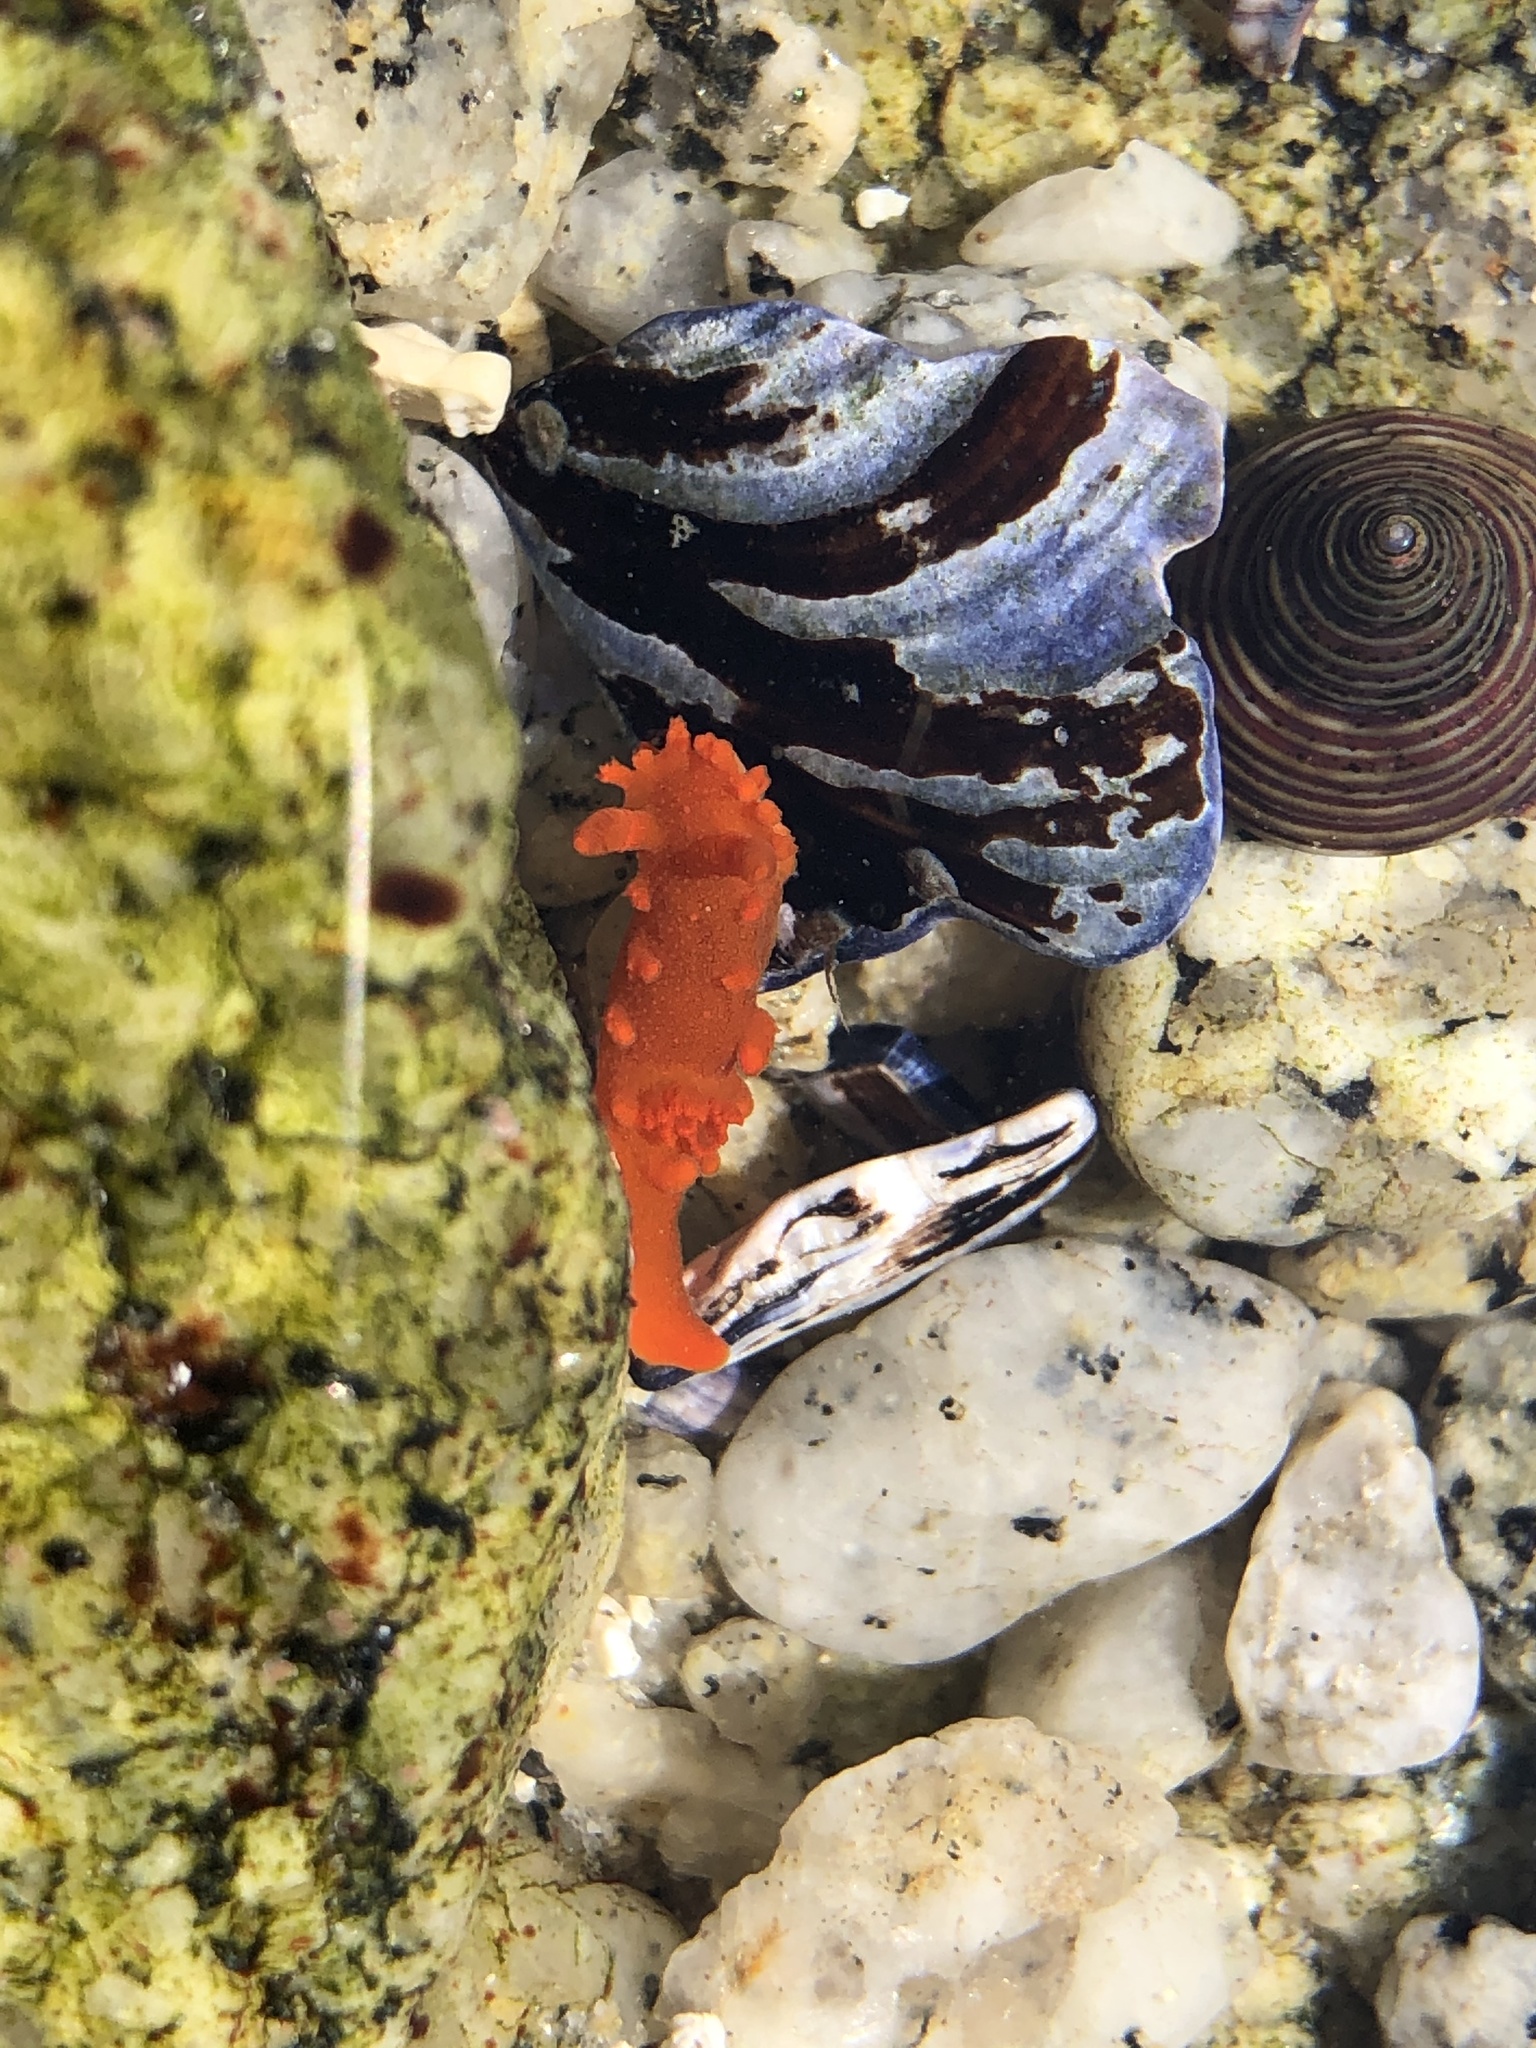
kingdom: Animalia
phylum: Mollusca
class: Gastropoda
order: Nudibranchia
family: Polyceridae
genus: Triopha
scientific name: Triopha maculata
